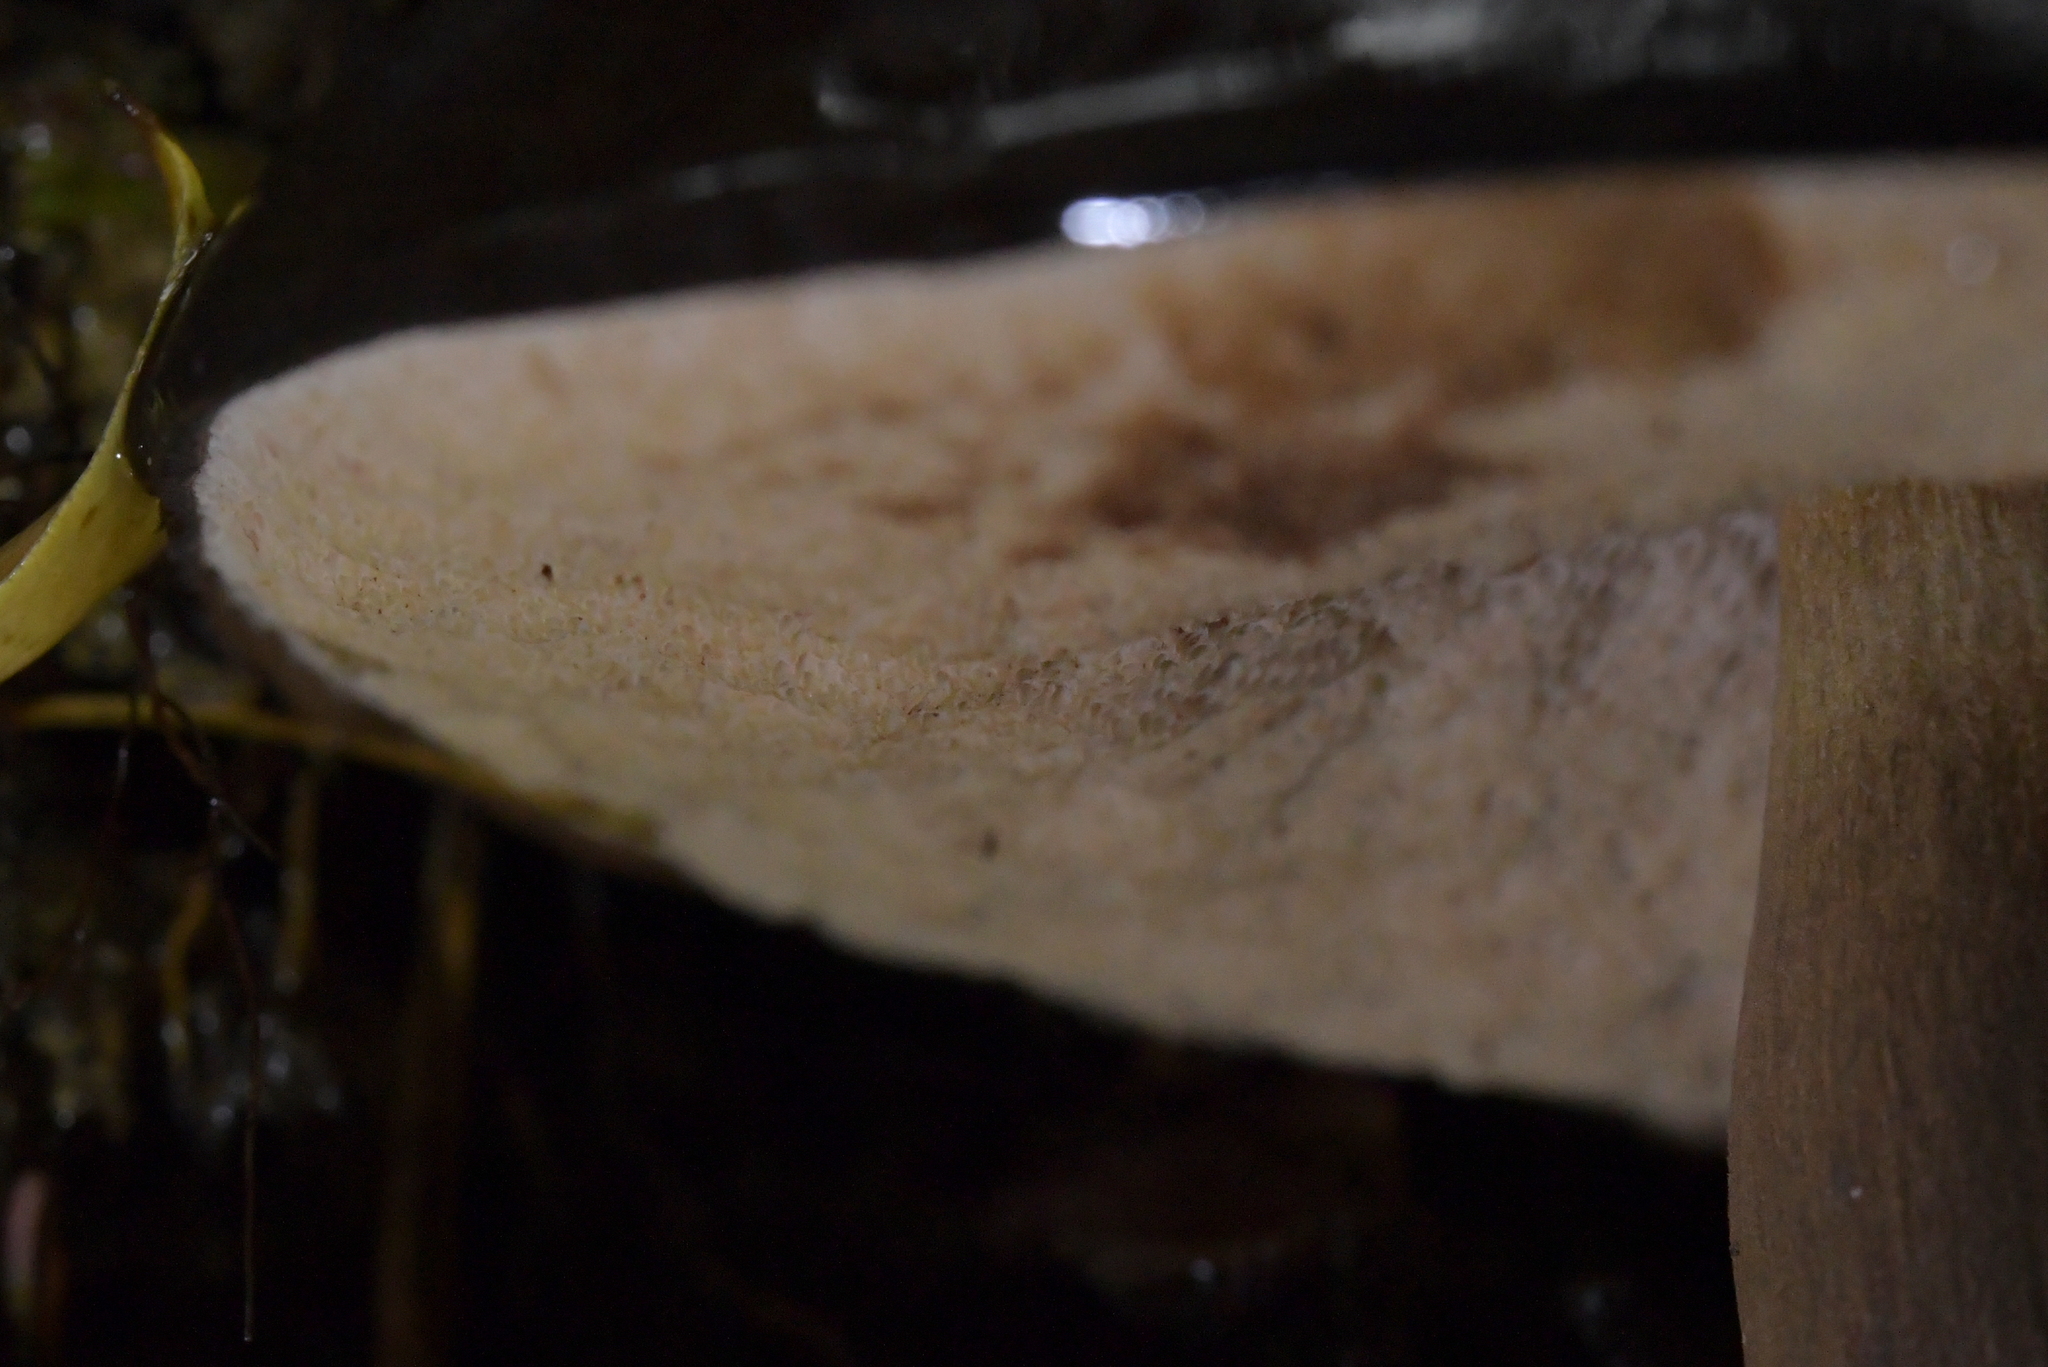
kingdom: Fungi
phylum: Basidiomycota
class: Agaricomycetes
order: Boletales
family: Boletaceae
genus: Porphyrellus
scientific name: Porphyrellus formosus
